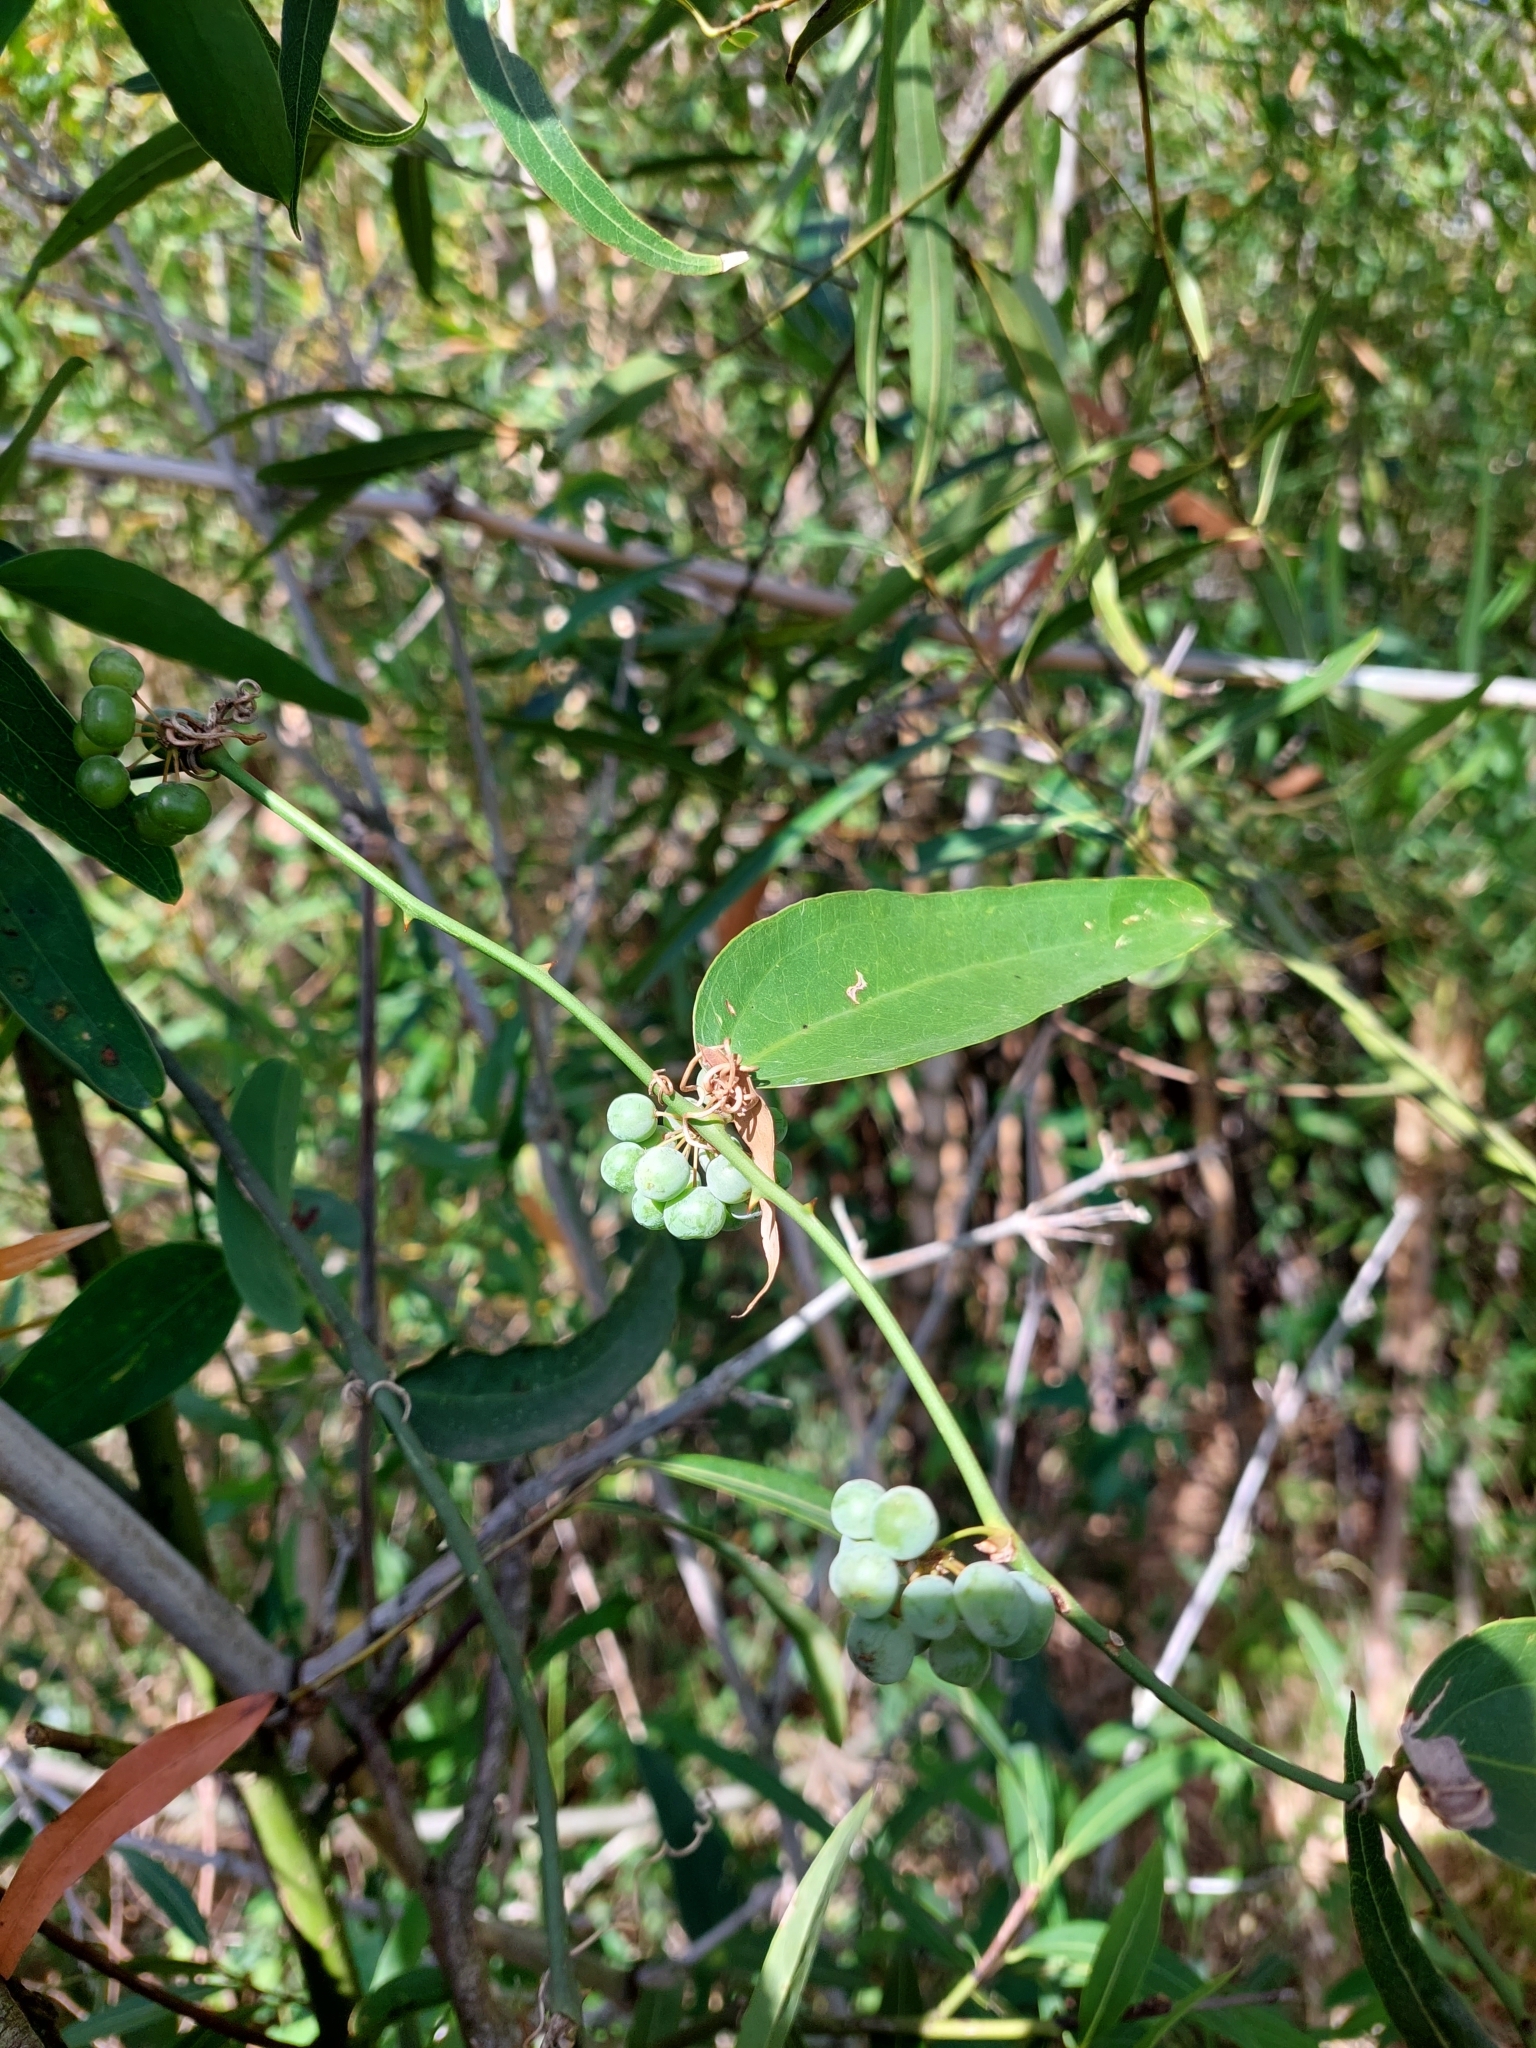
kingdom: Plantae
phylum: Tracheophyta
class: Liliopsida
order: Liliales
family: Smilacaceae
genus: Smilax
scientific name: Smilax campestris
